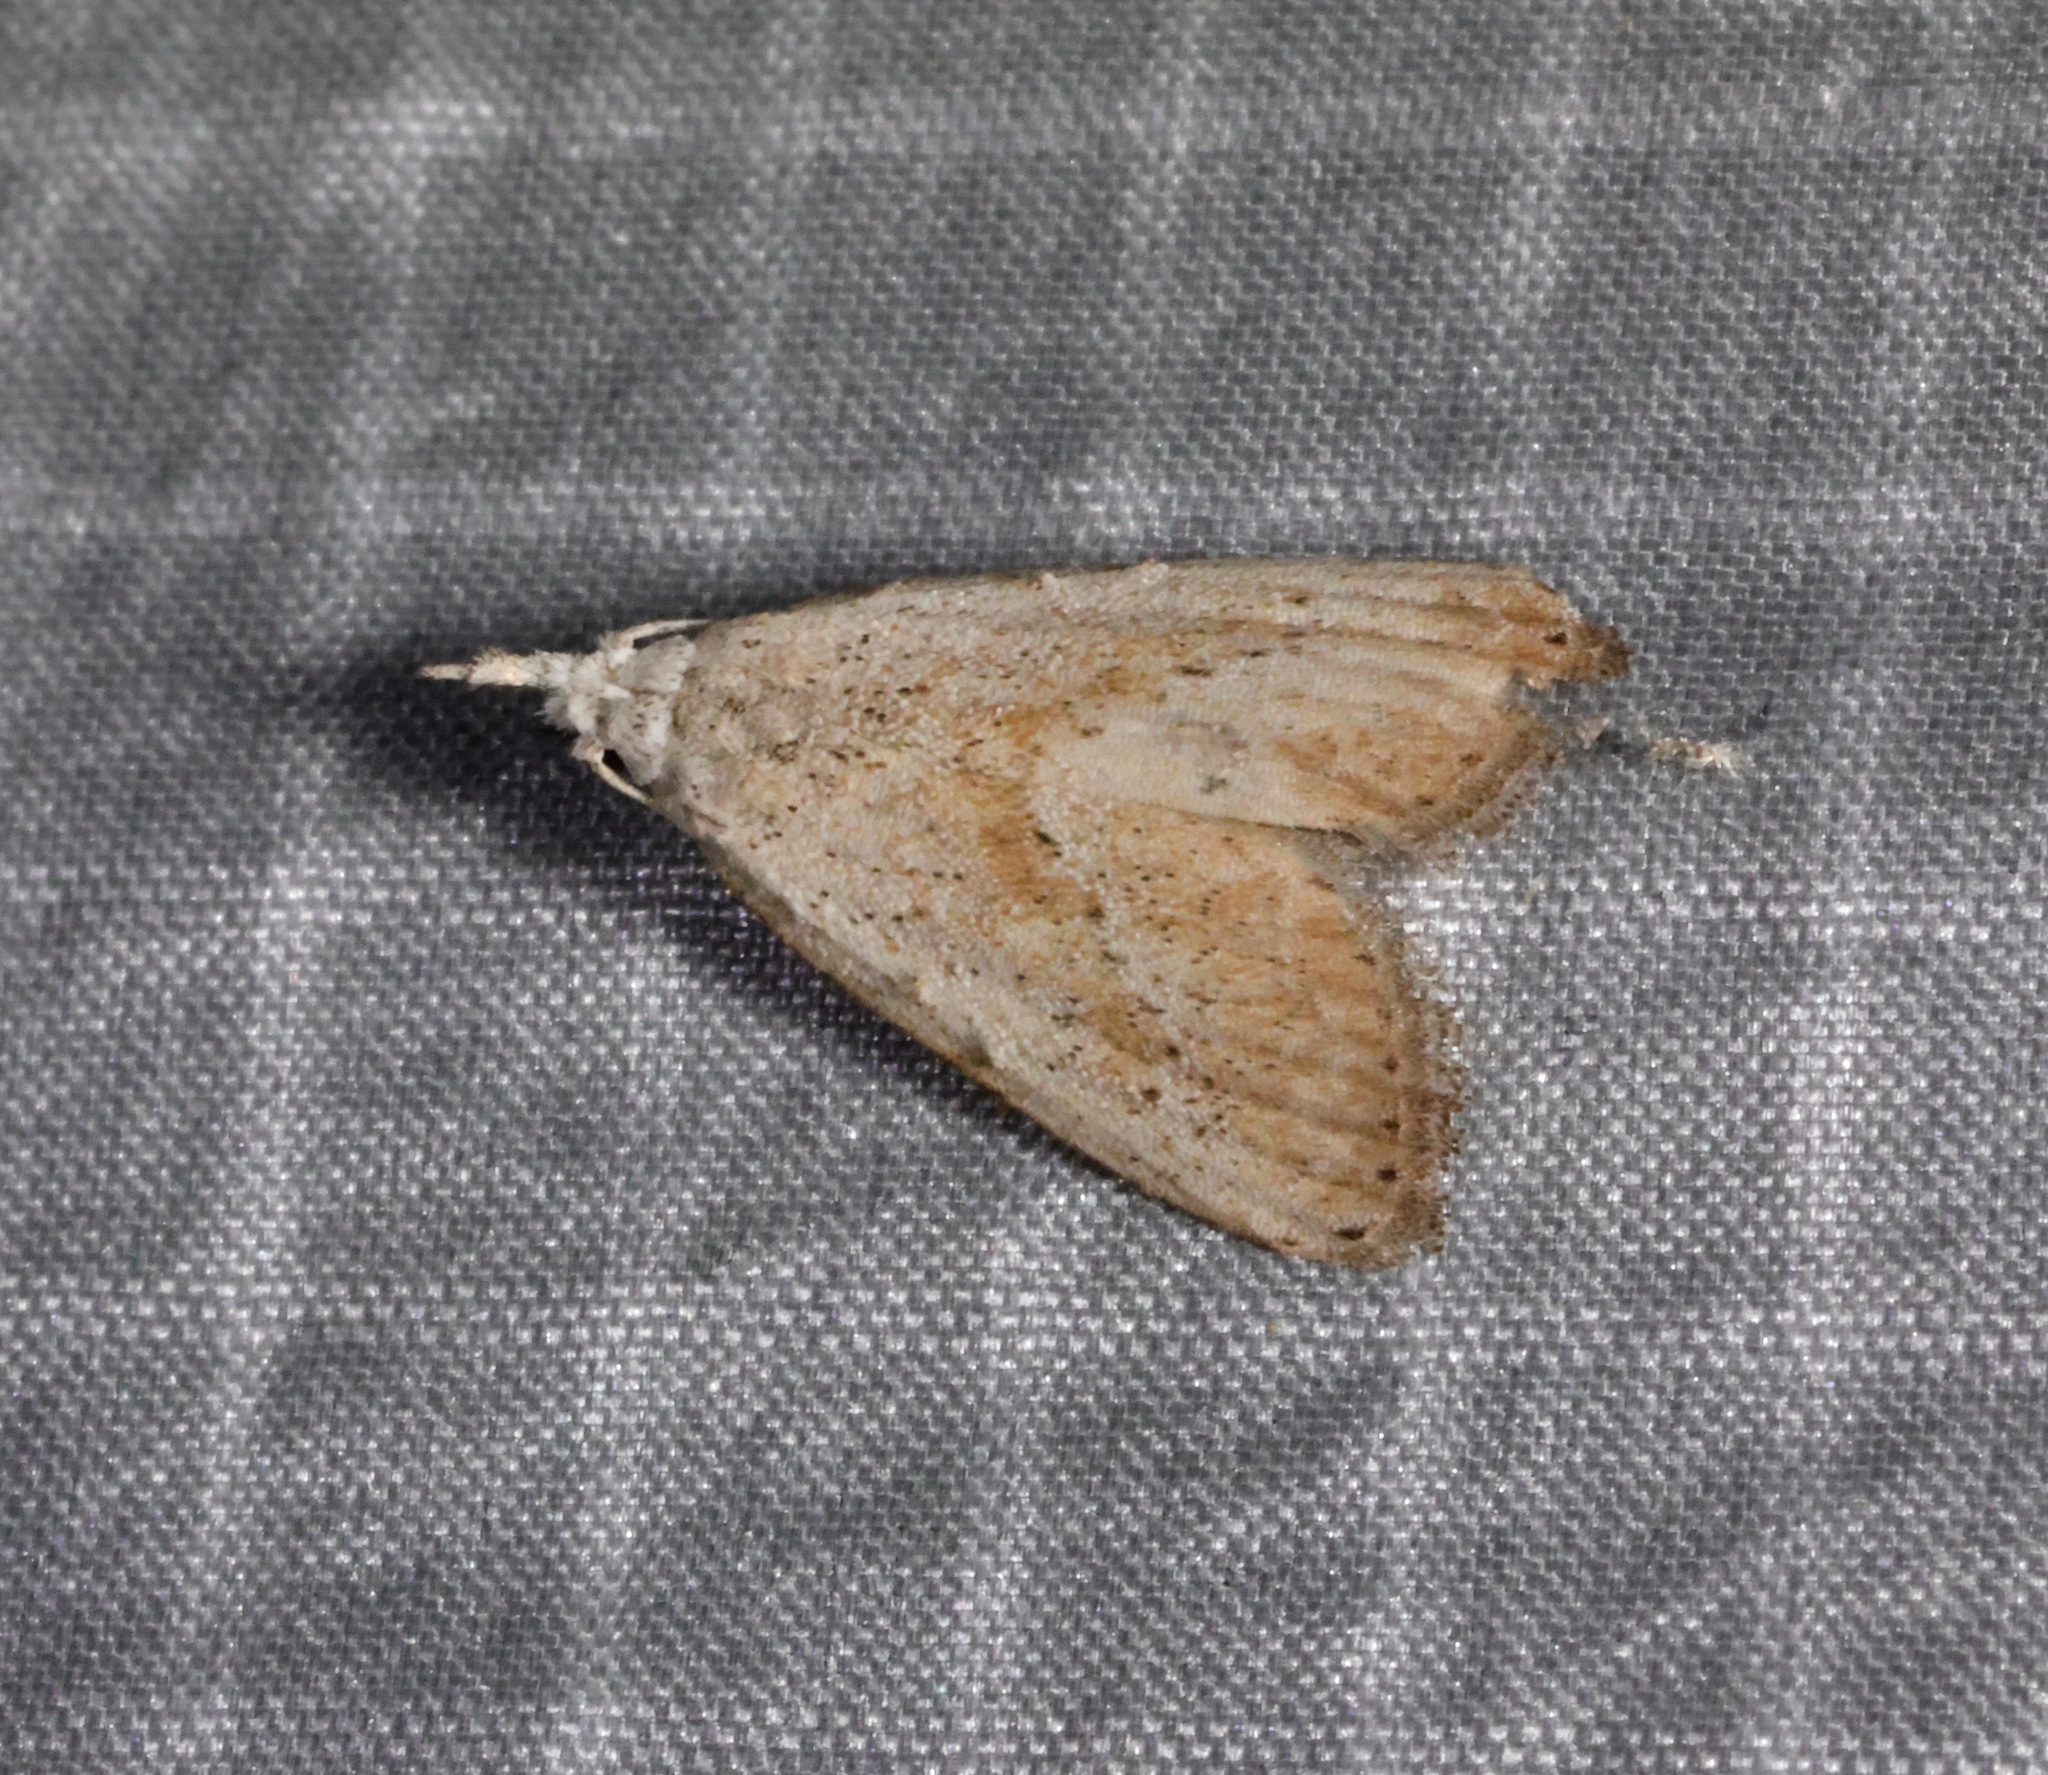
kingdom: Animalia
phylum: Arthropoda
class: Insecta
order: Lepidoptera
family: Nolidae
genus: Meganola
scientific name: Meganola brunellus
